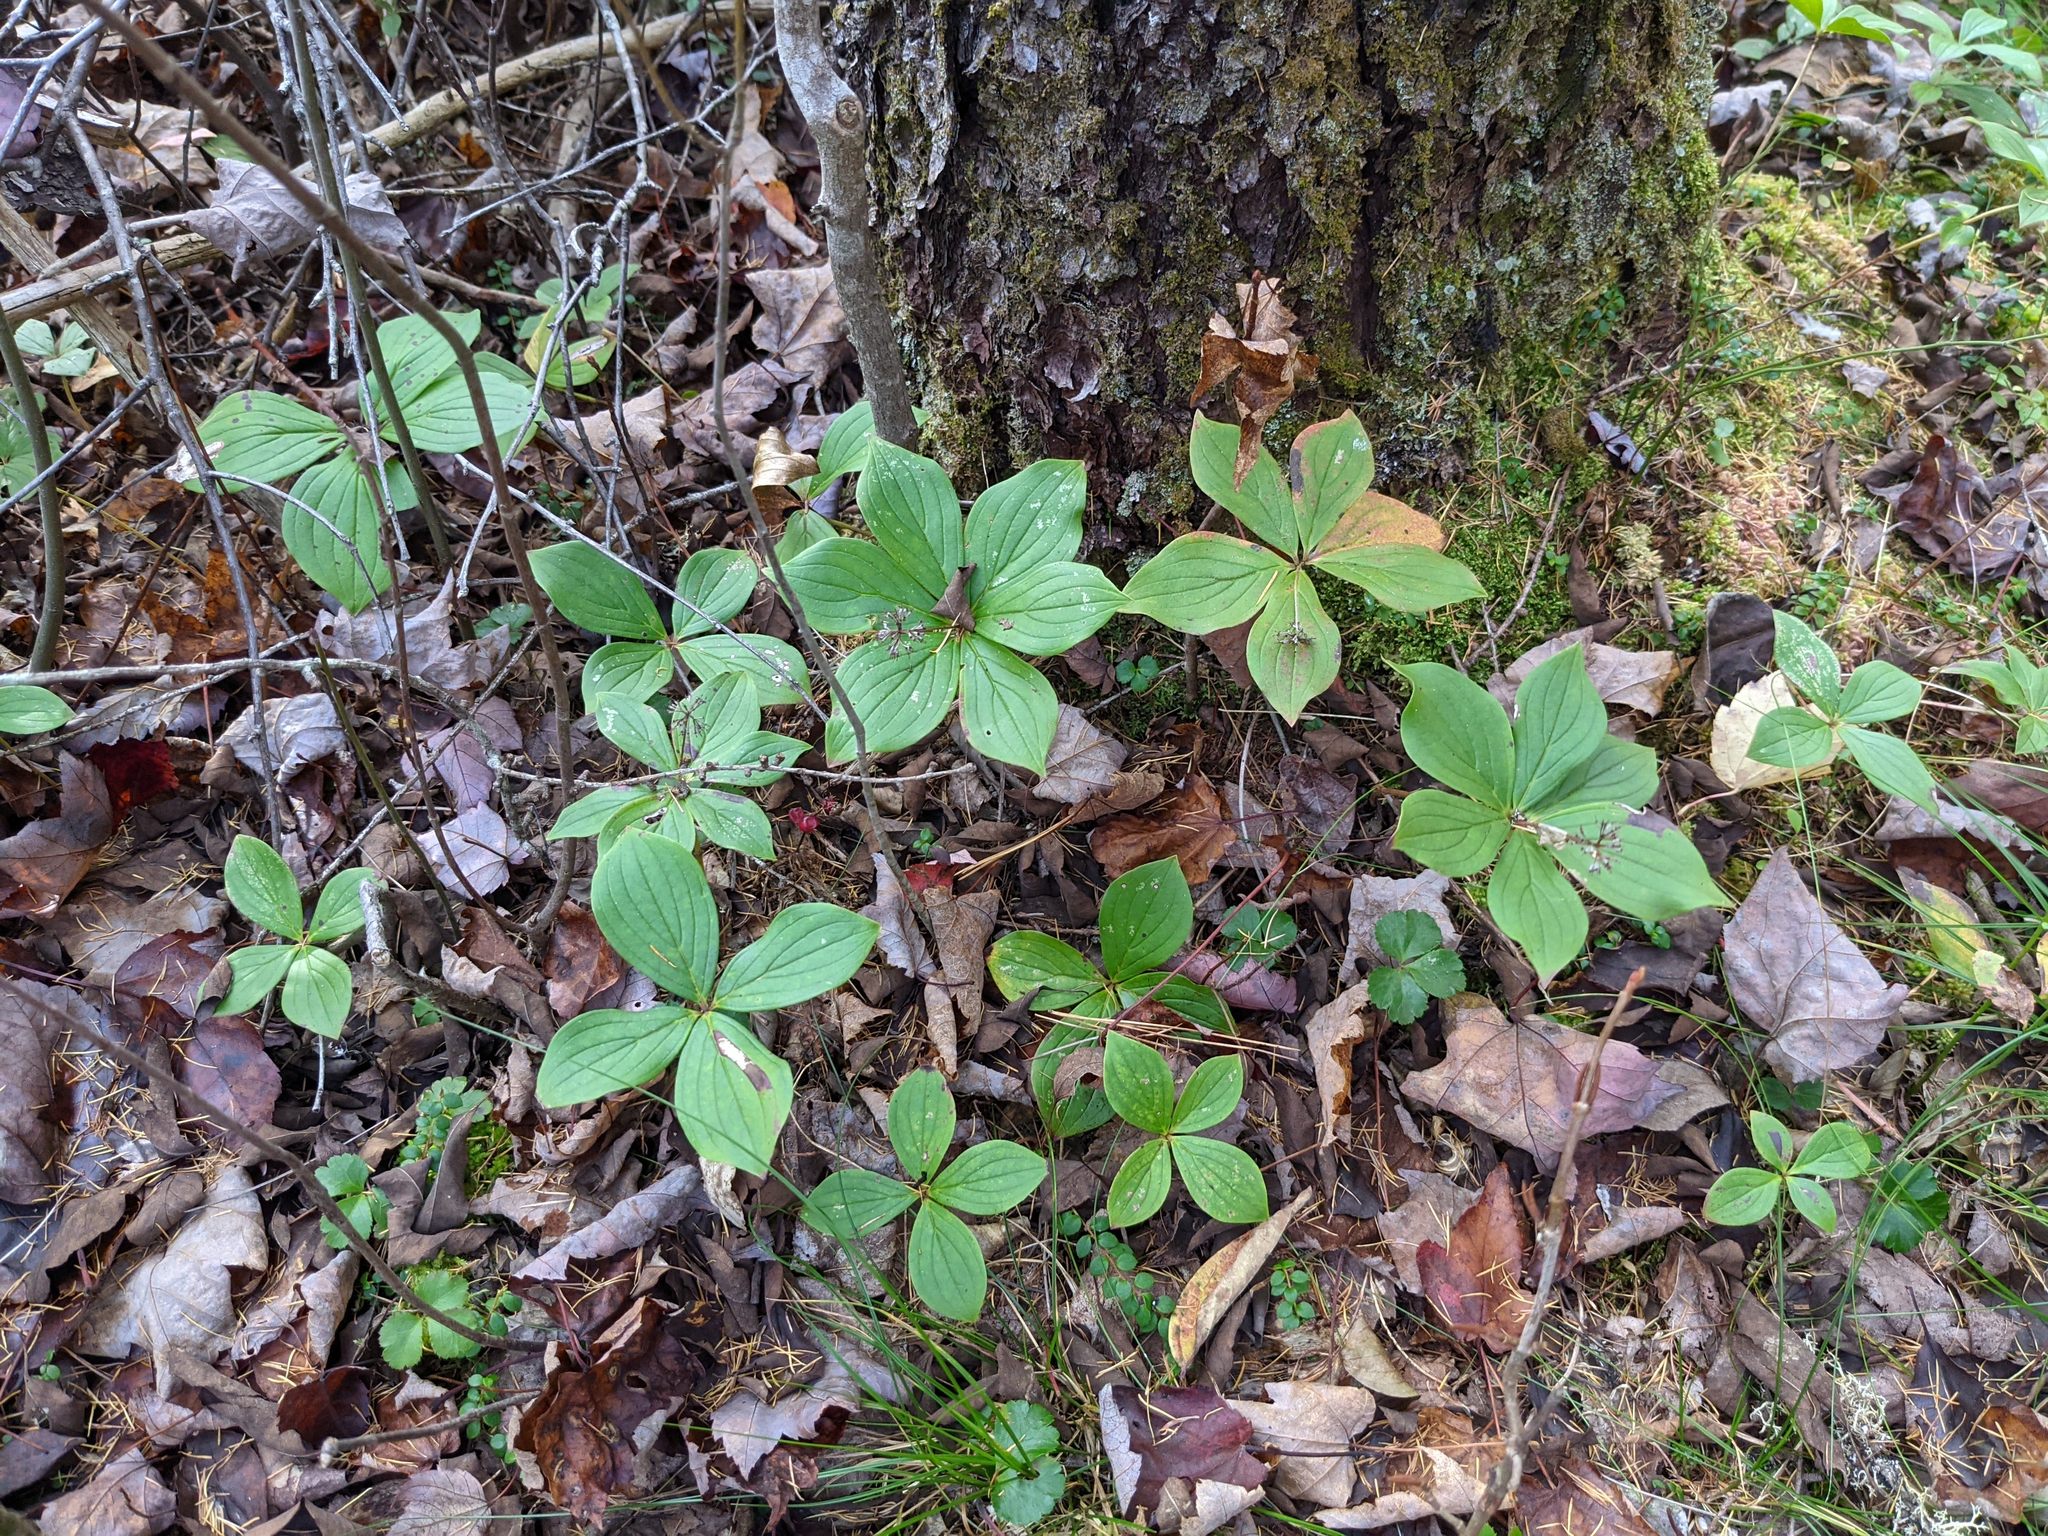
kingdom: Plantae
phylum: Tracheophyta
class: Magnoliopsida
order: Cornales
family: Cornaceae
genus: Cornus
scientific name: Cornus canadensis
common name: Creeping dogwood
